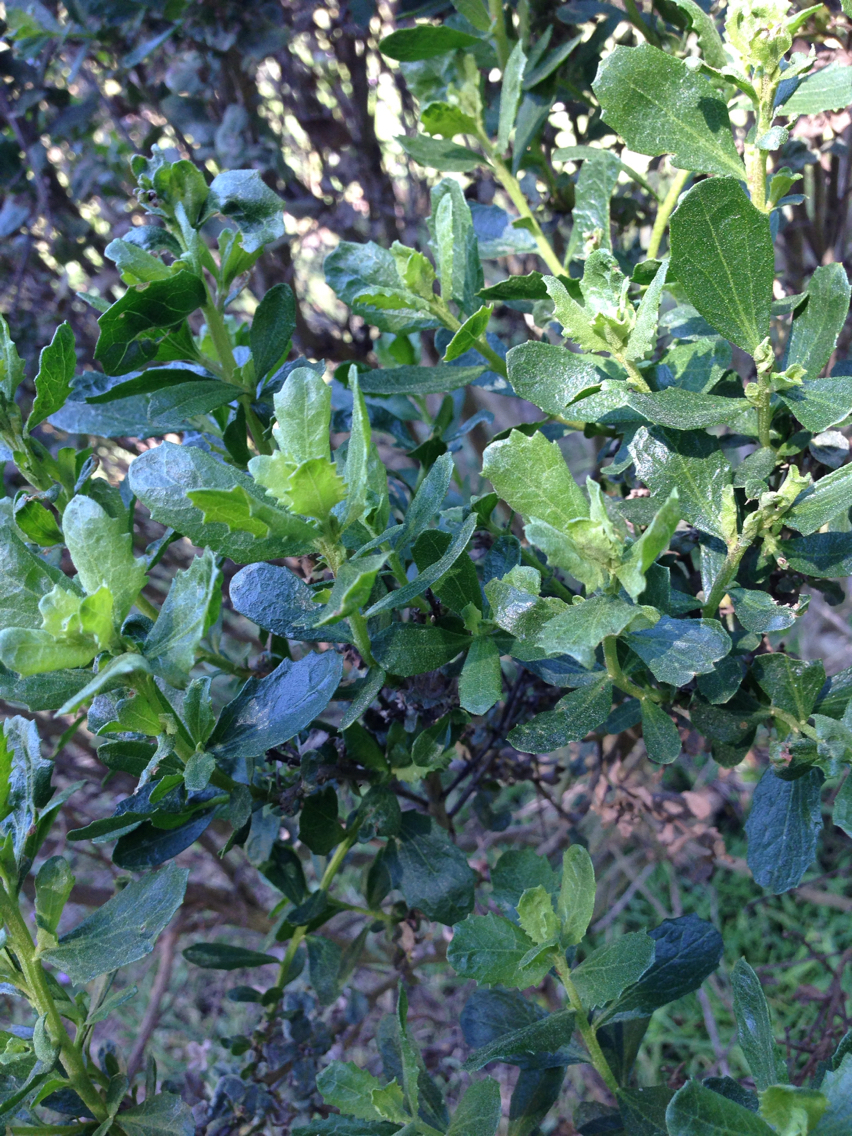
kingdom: Plantae
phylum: Tracheophyta
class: Magnoliopsida
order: Asterales
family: Asteraceae
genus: Baccharis
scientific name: Baccharis pilularis
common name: Coyotebrush
